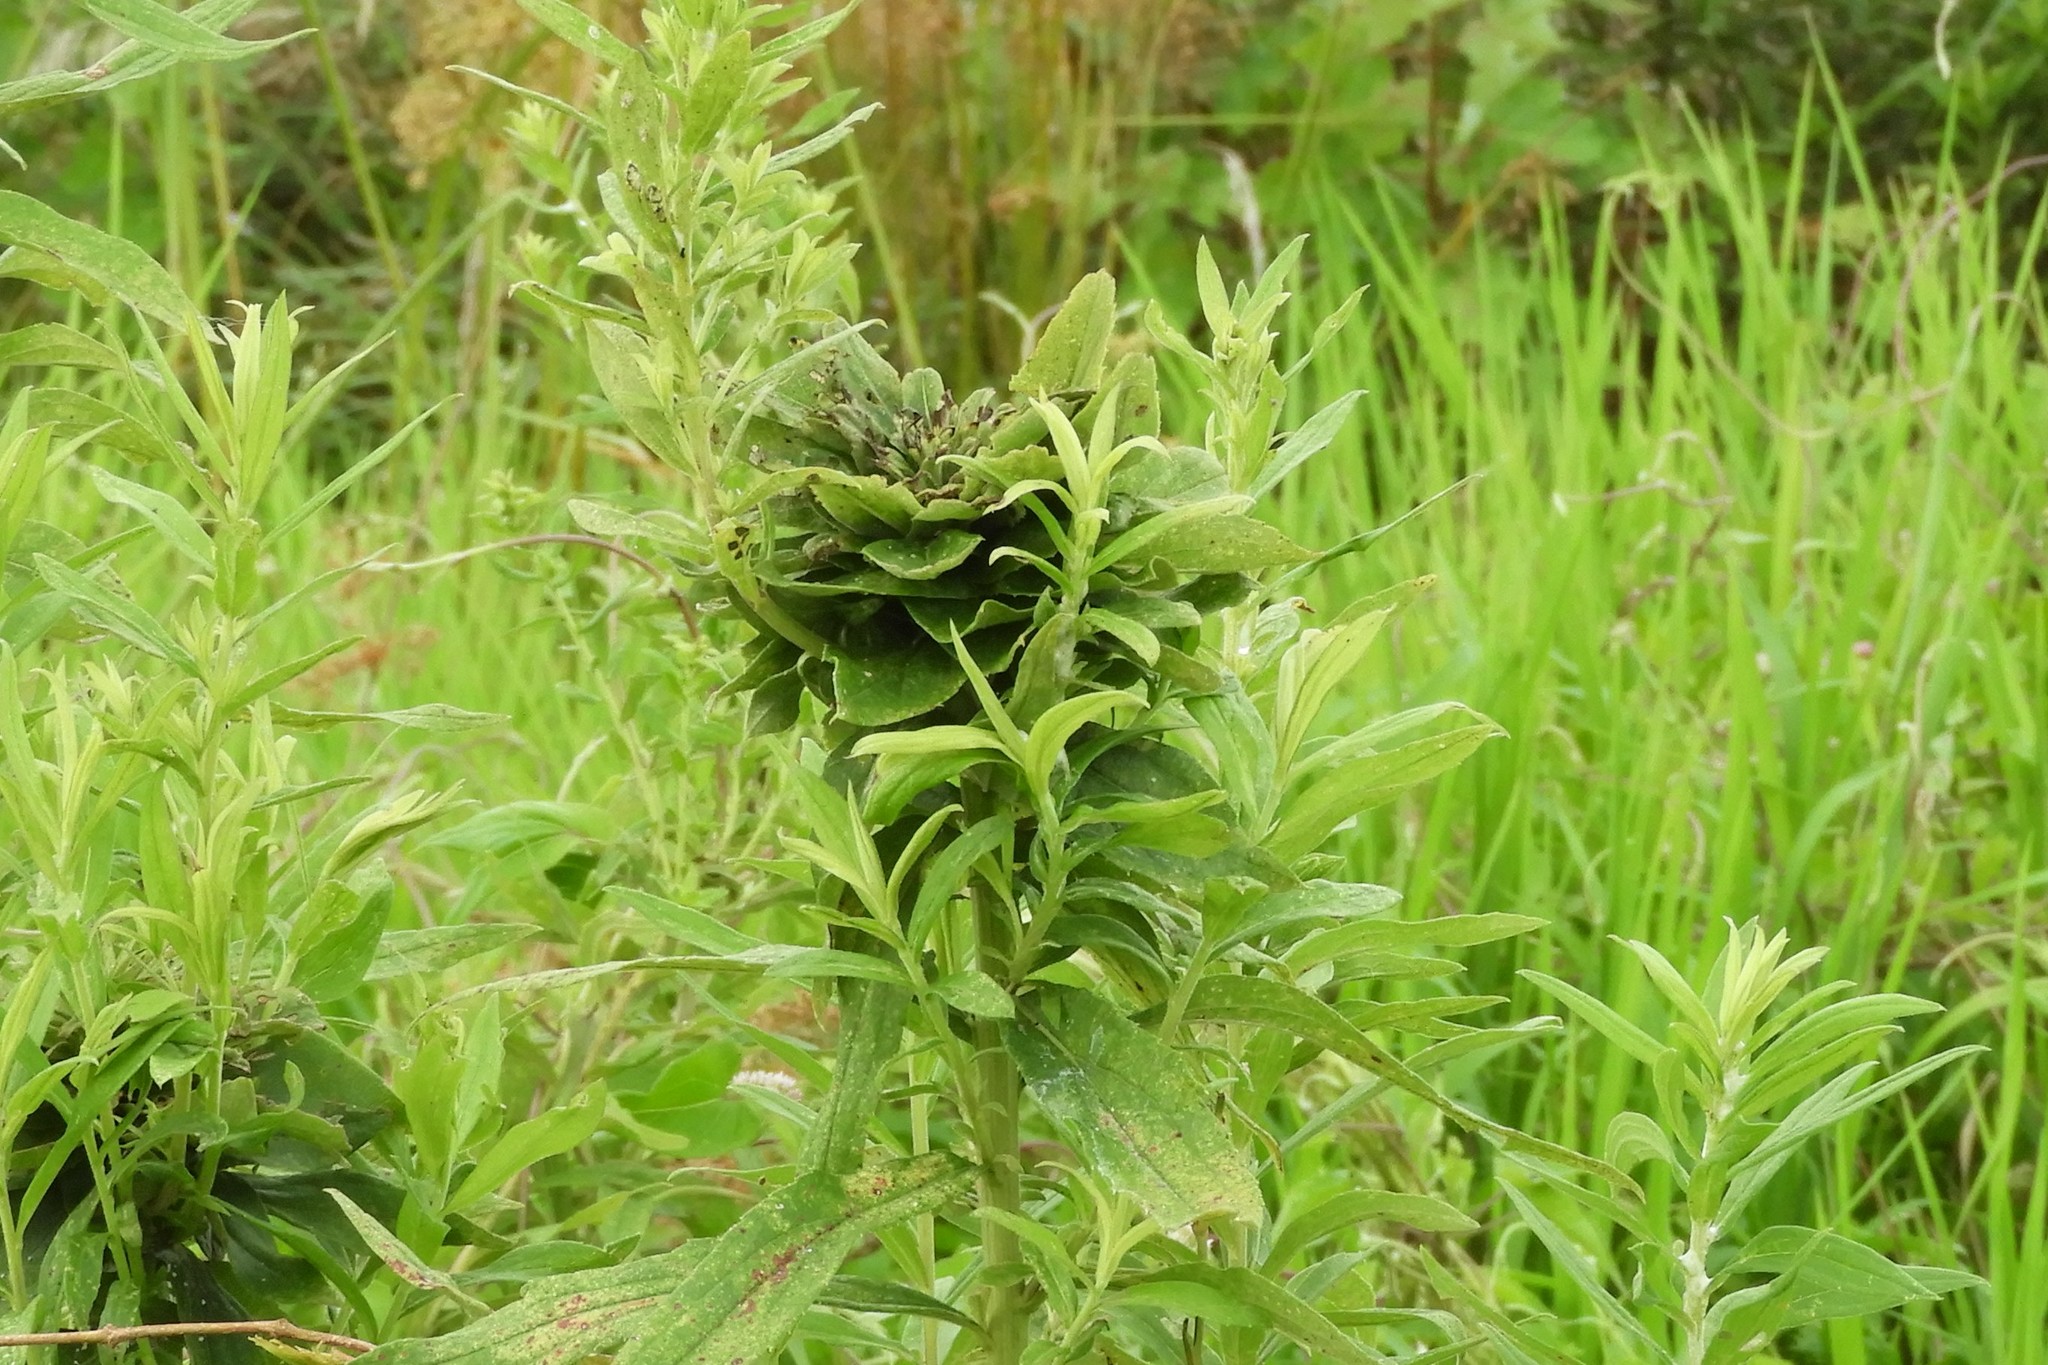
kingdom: Animalia
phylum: Arthropoda
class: Insecta
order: Diptera
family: Cecidomyiidae
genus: Rhopalomyia
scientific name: Rhopalomyia solidaginis
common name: Goldenrod bunch gall midge
